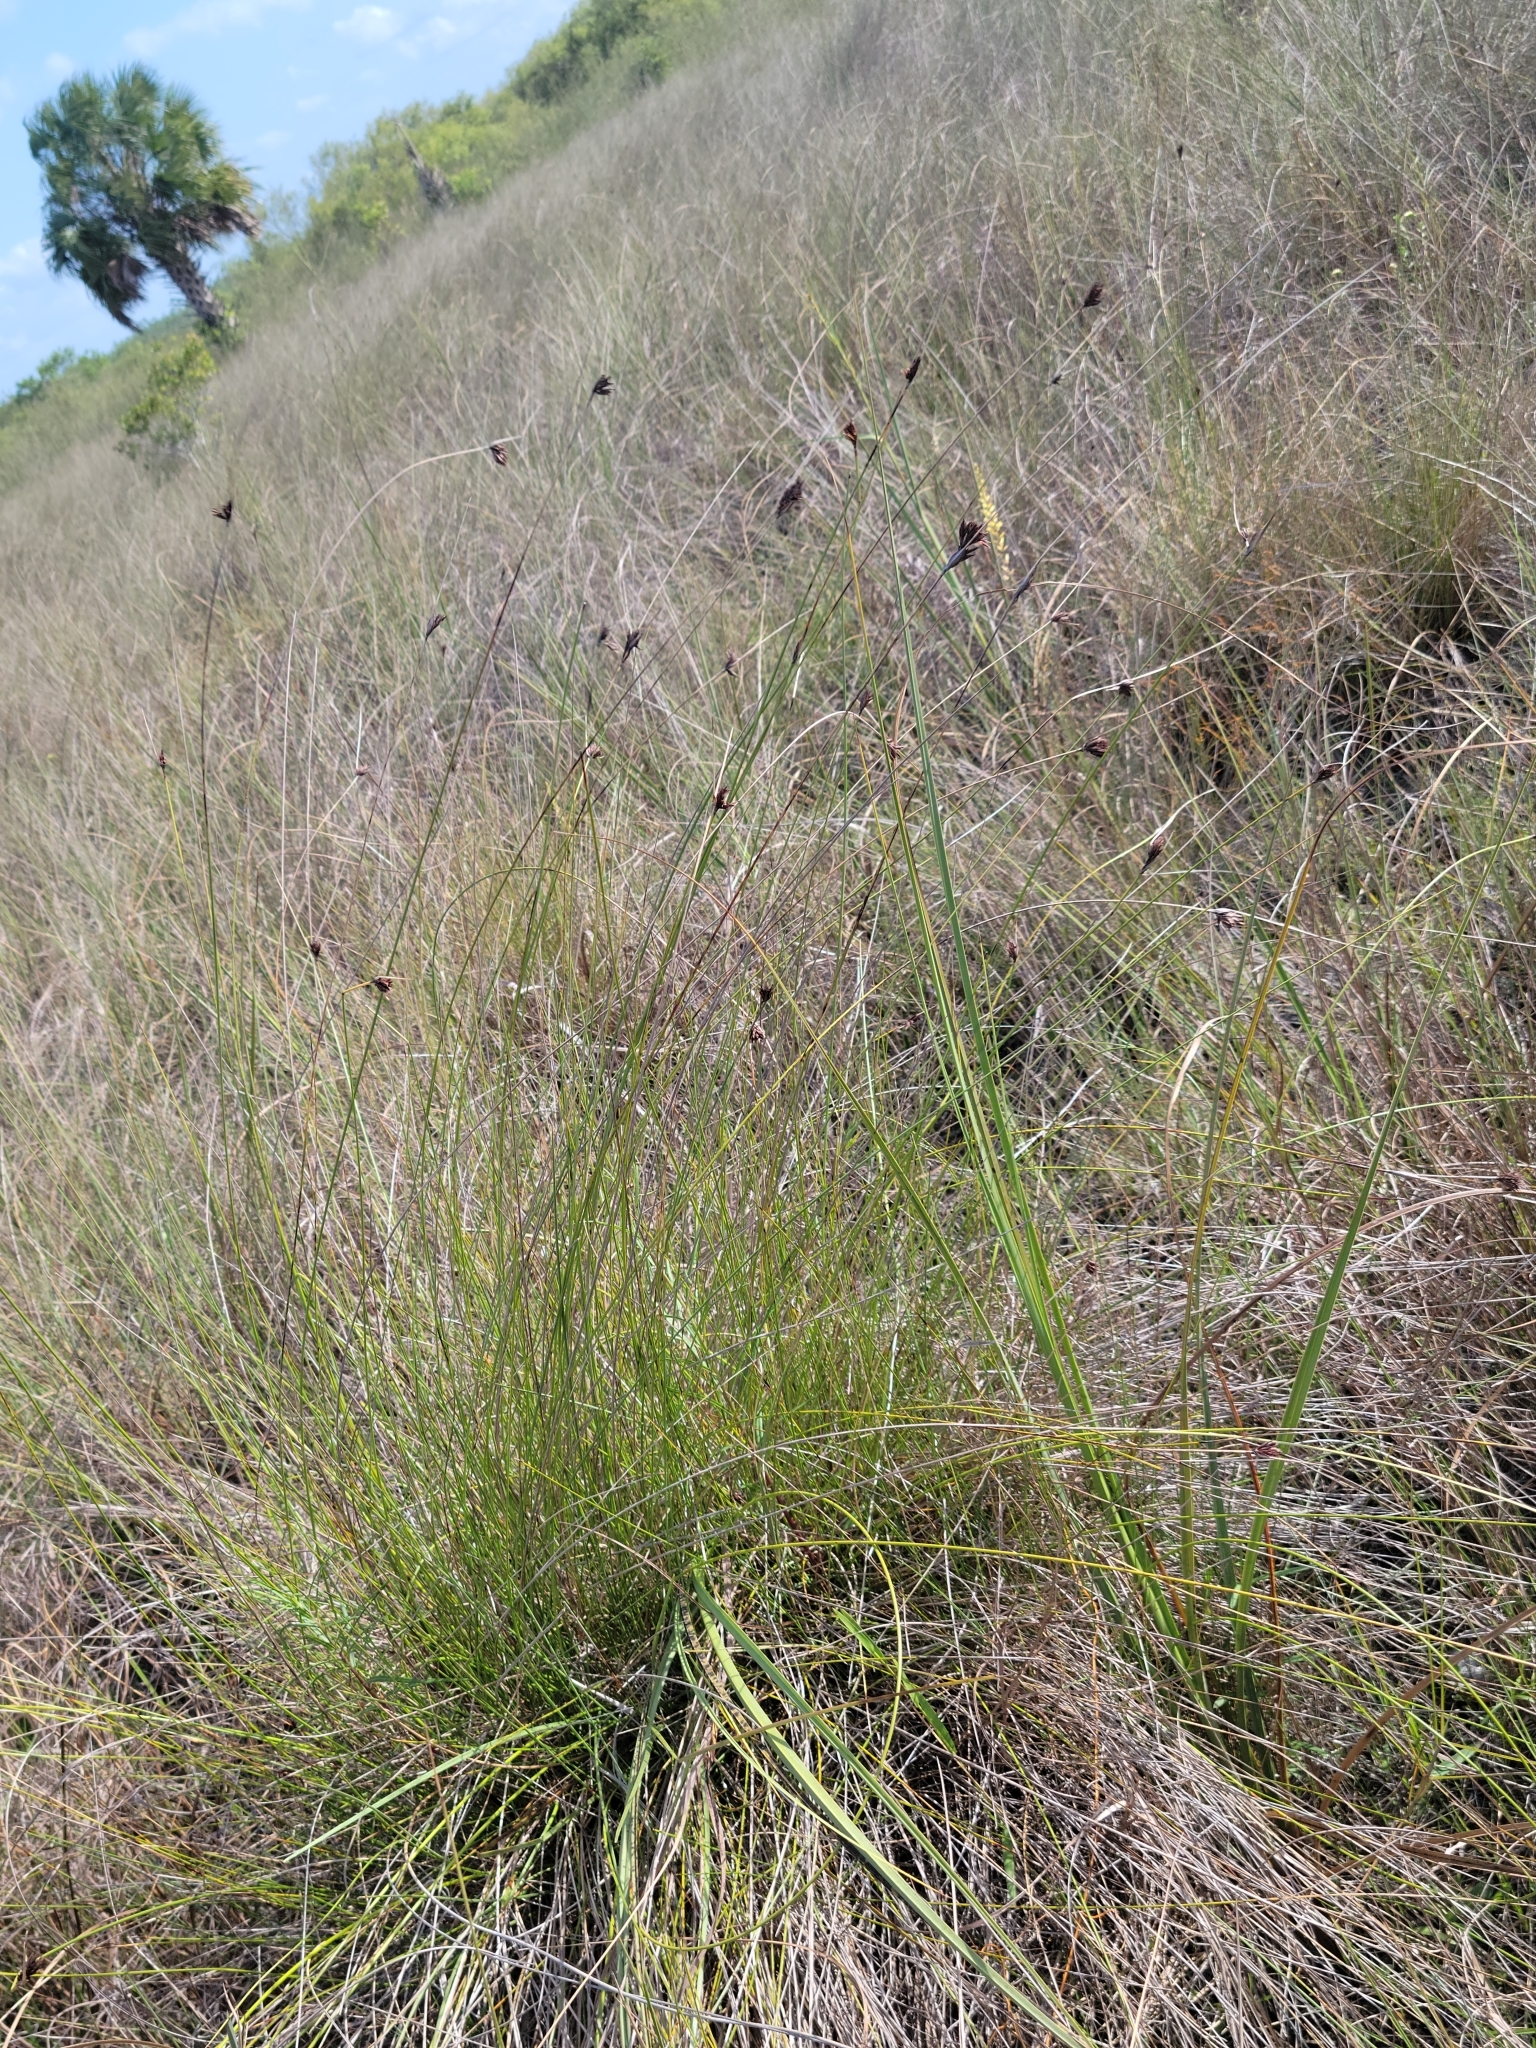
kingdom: Plantae
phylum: Tracheophyta
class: Liliopsida
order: Poales
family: Cyperaceae
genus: Schoenus
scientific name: Schoenus nigricans
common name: Black bog-rush
